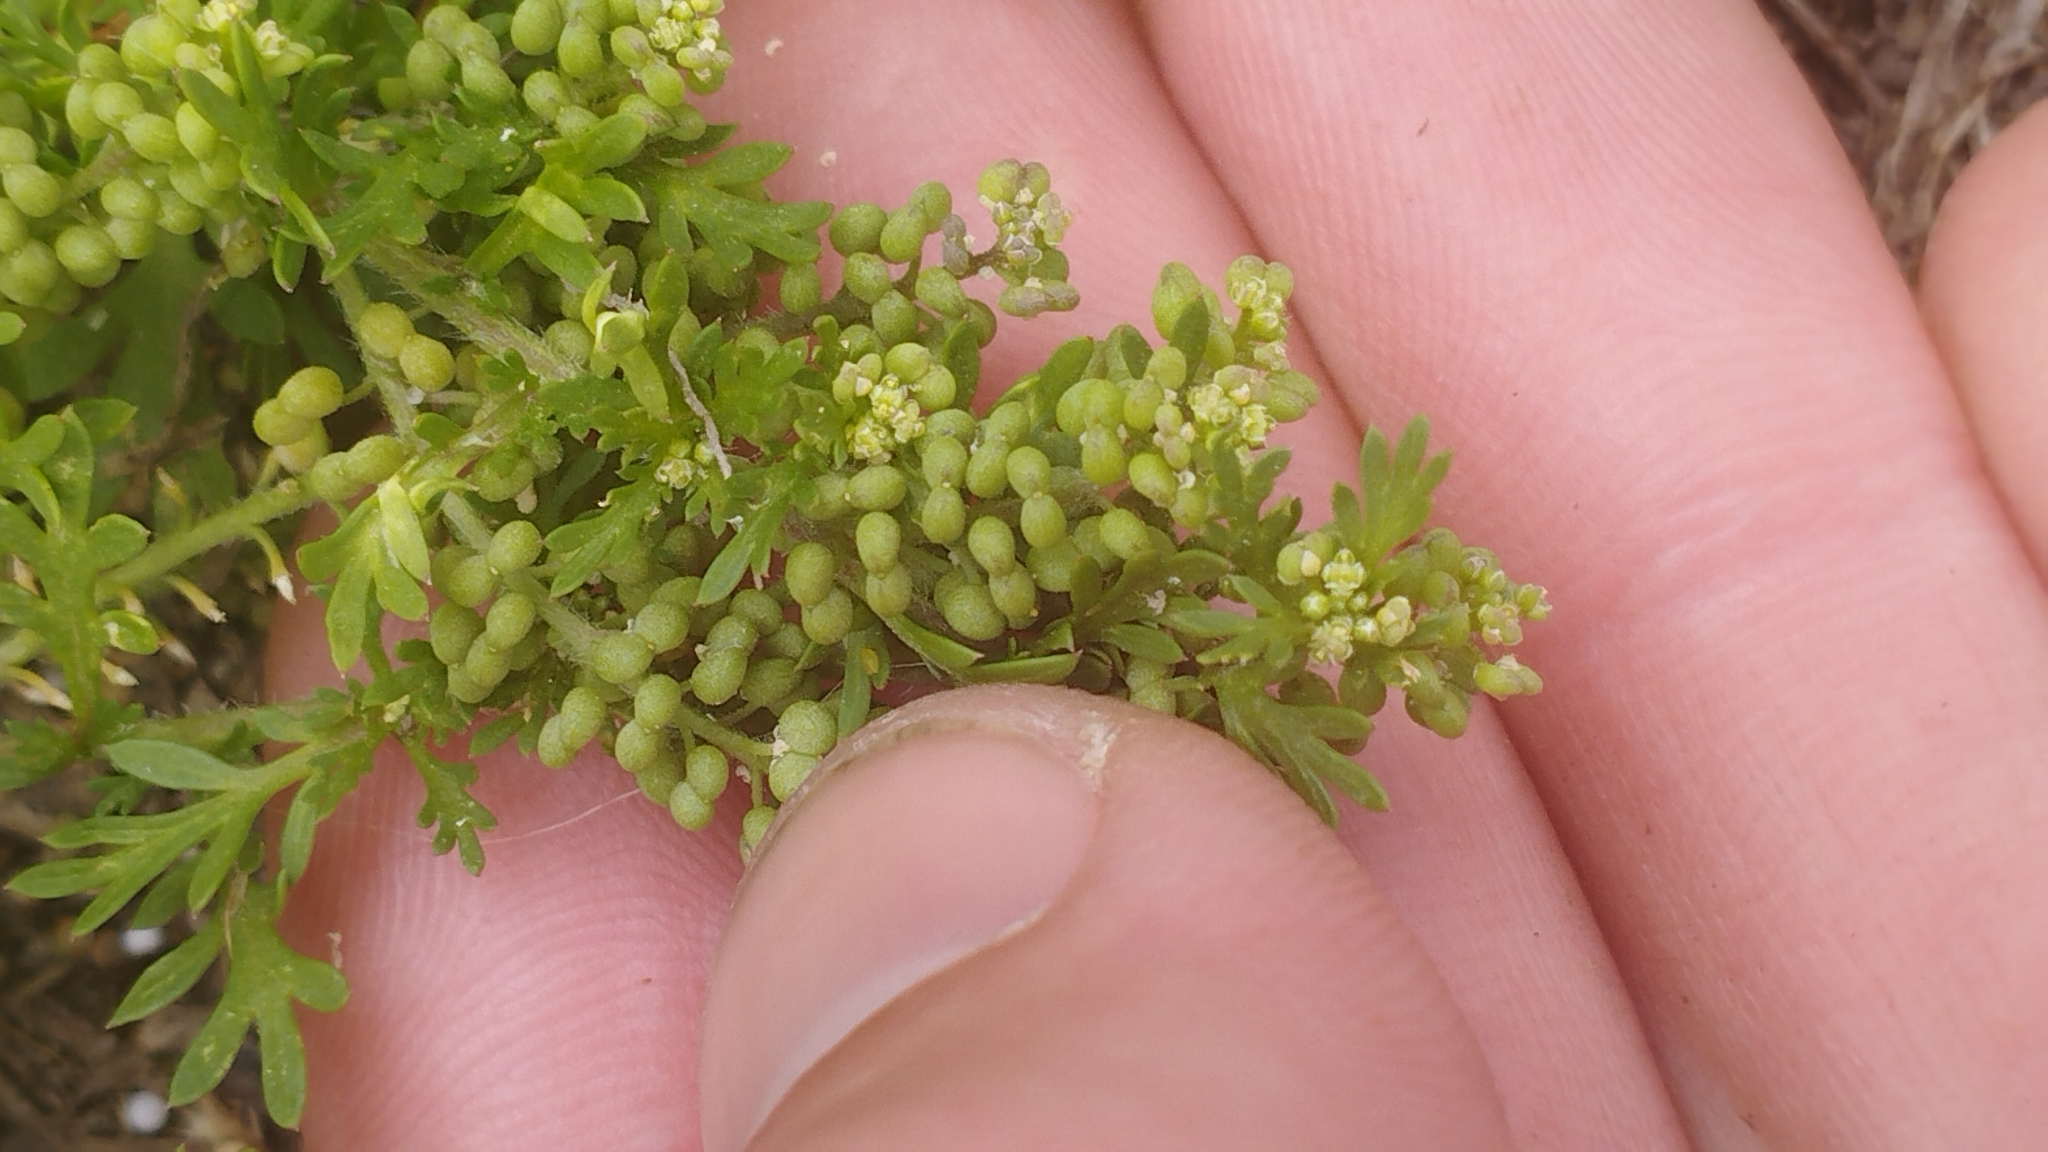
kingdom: Plantae
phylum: Tracheophyta
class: Magnoliopsida
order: Brassicales
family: Brassicaceae
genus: Lepidium
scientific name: Lepidium didymum
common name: Lesser swinecress
